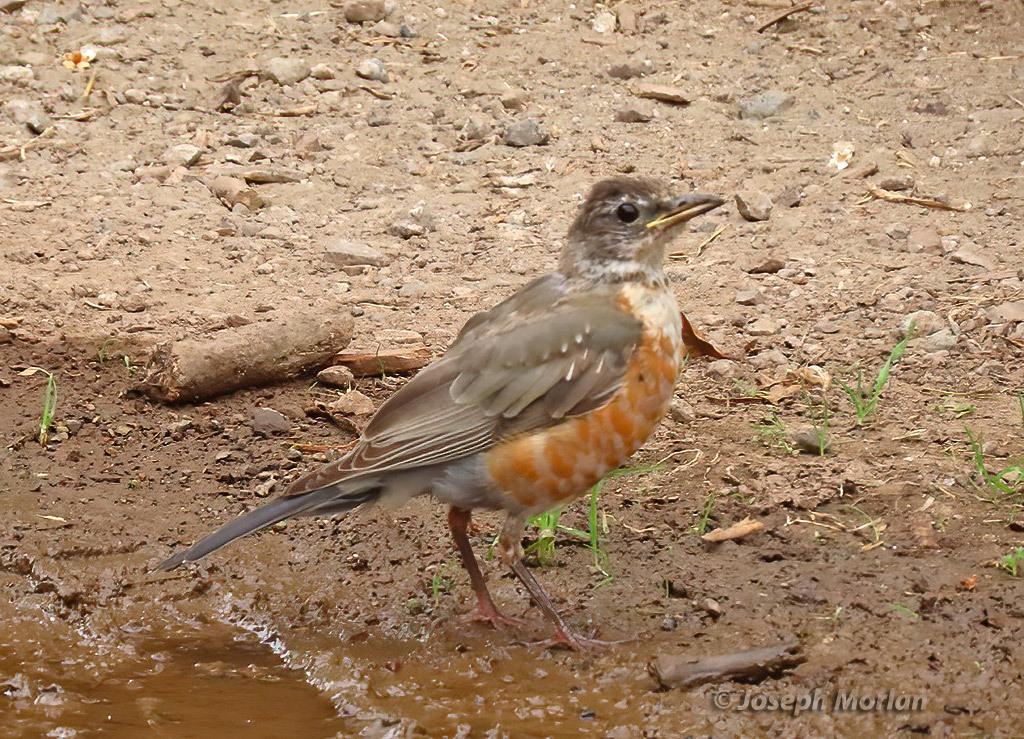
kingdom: Animalia
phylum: Chordata
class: Aves
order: Passeriformes
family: Turdidae
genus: Turdus
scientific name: Turdus migratorius
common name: American robin
